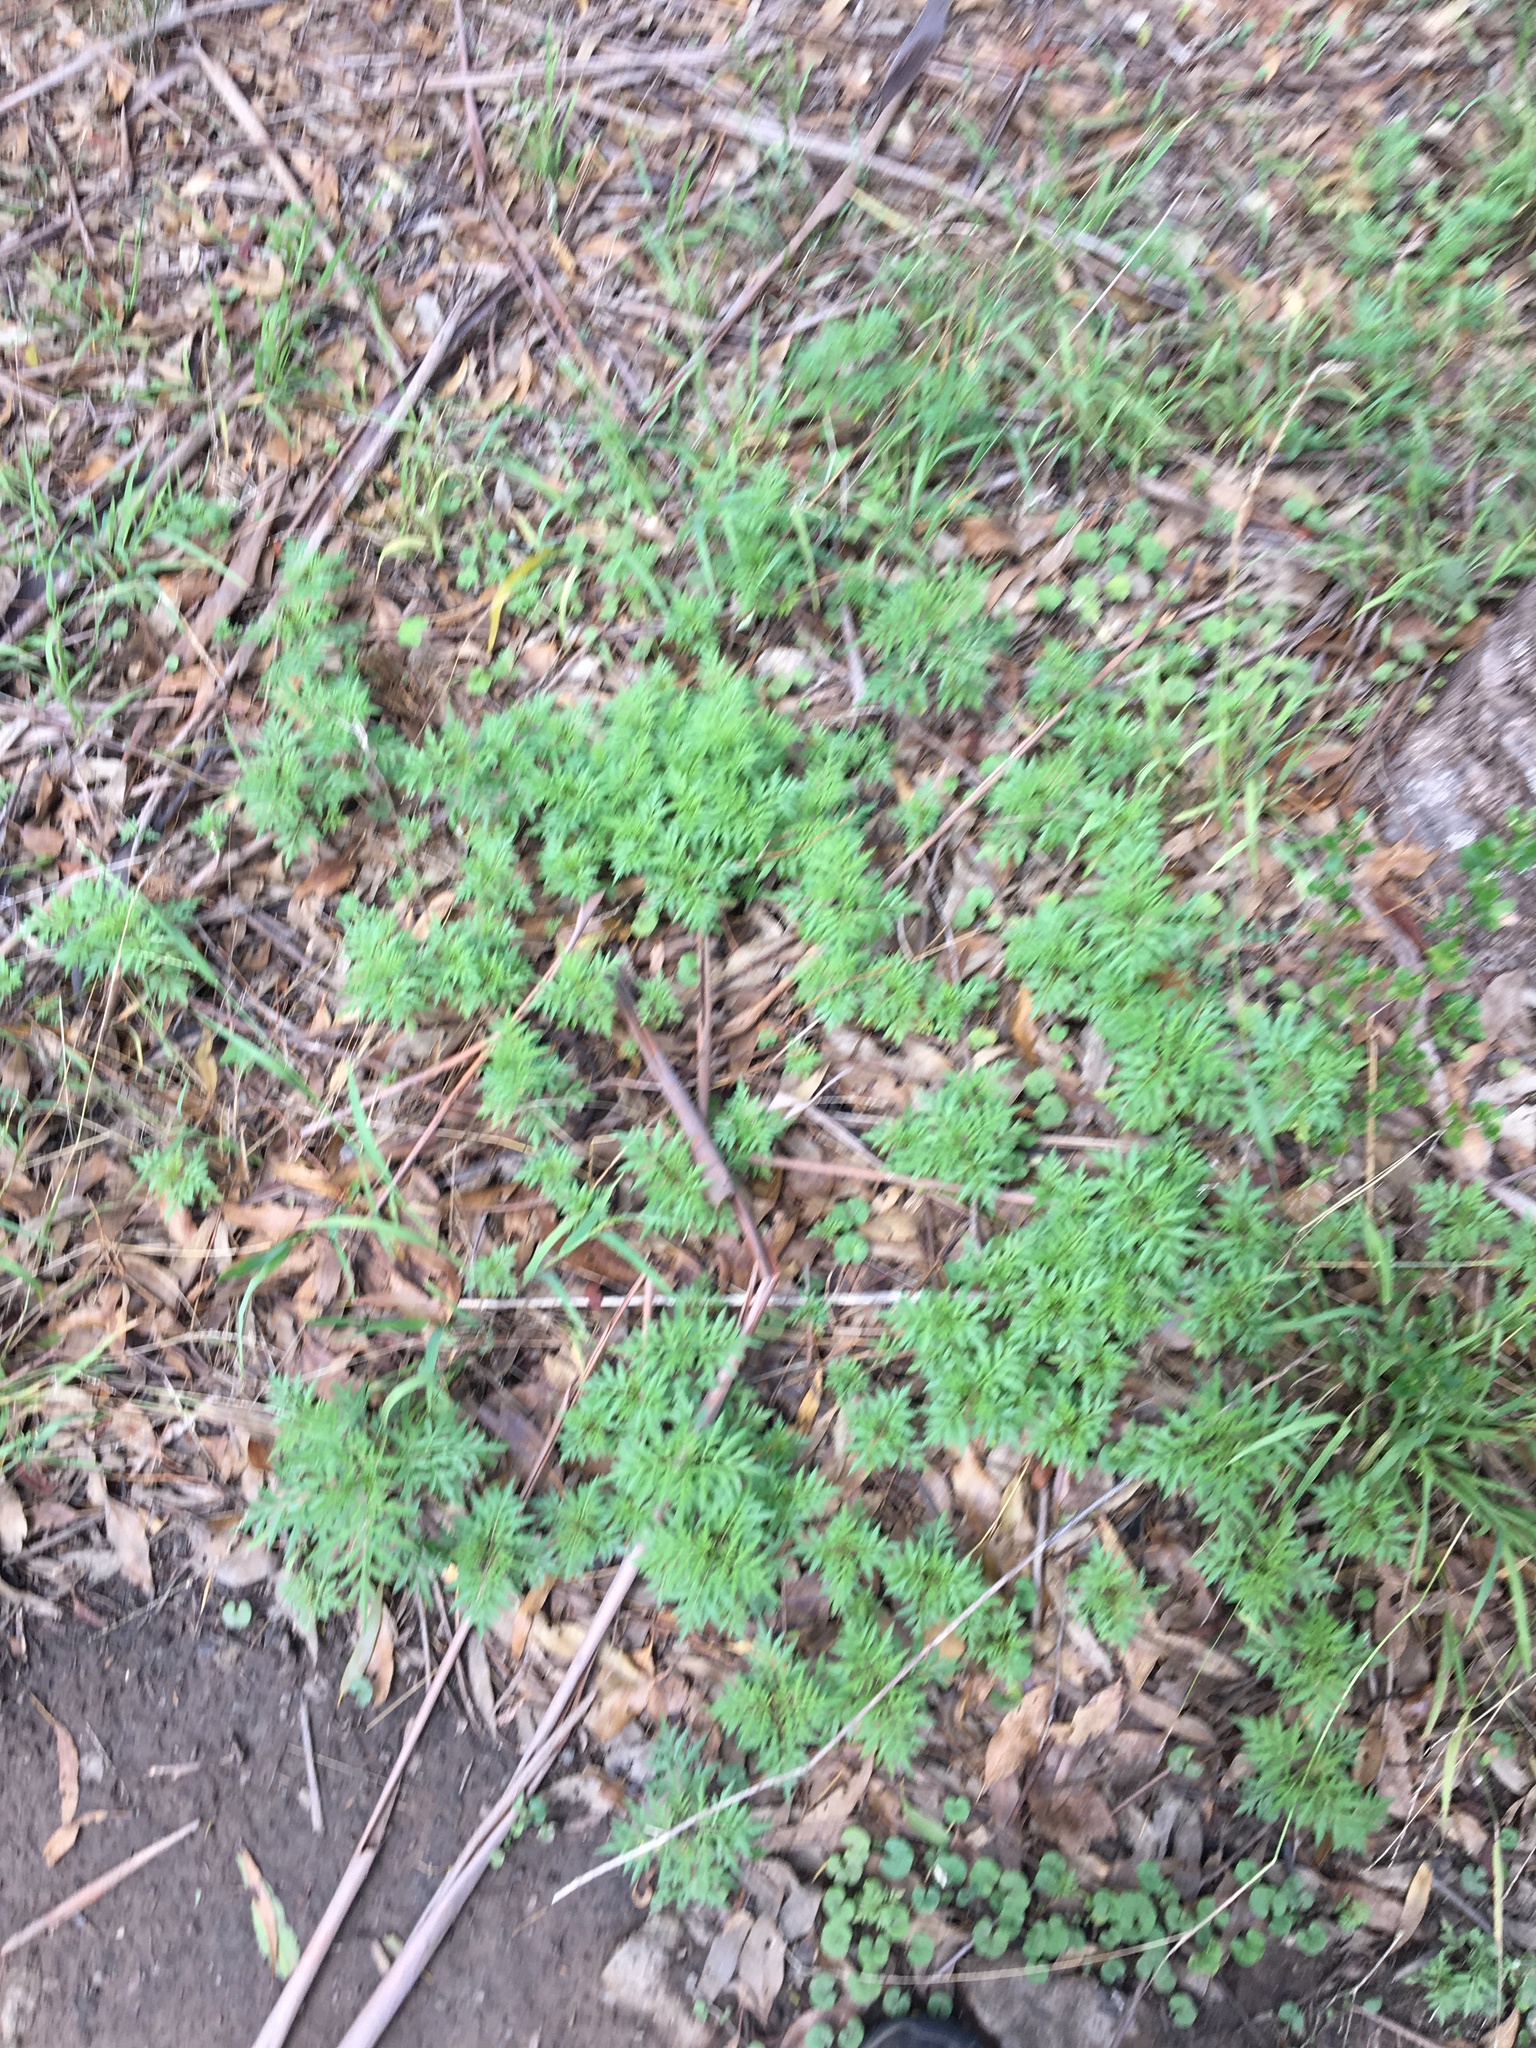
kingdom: Plantae
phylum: Tracheophyta
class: Magnoliopsida
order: Asterales
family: Asteraceae
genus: Bidens
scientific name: Bidens subalternans
